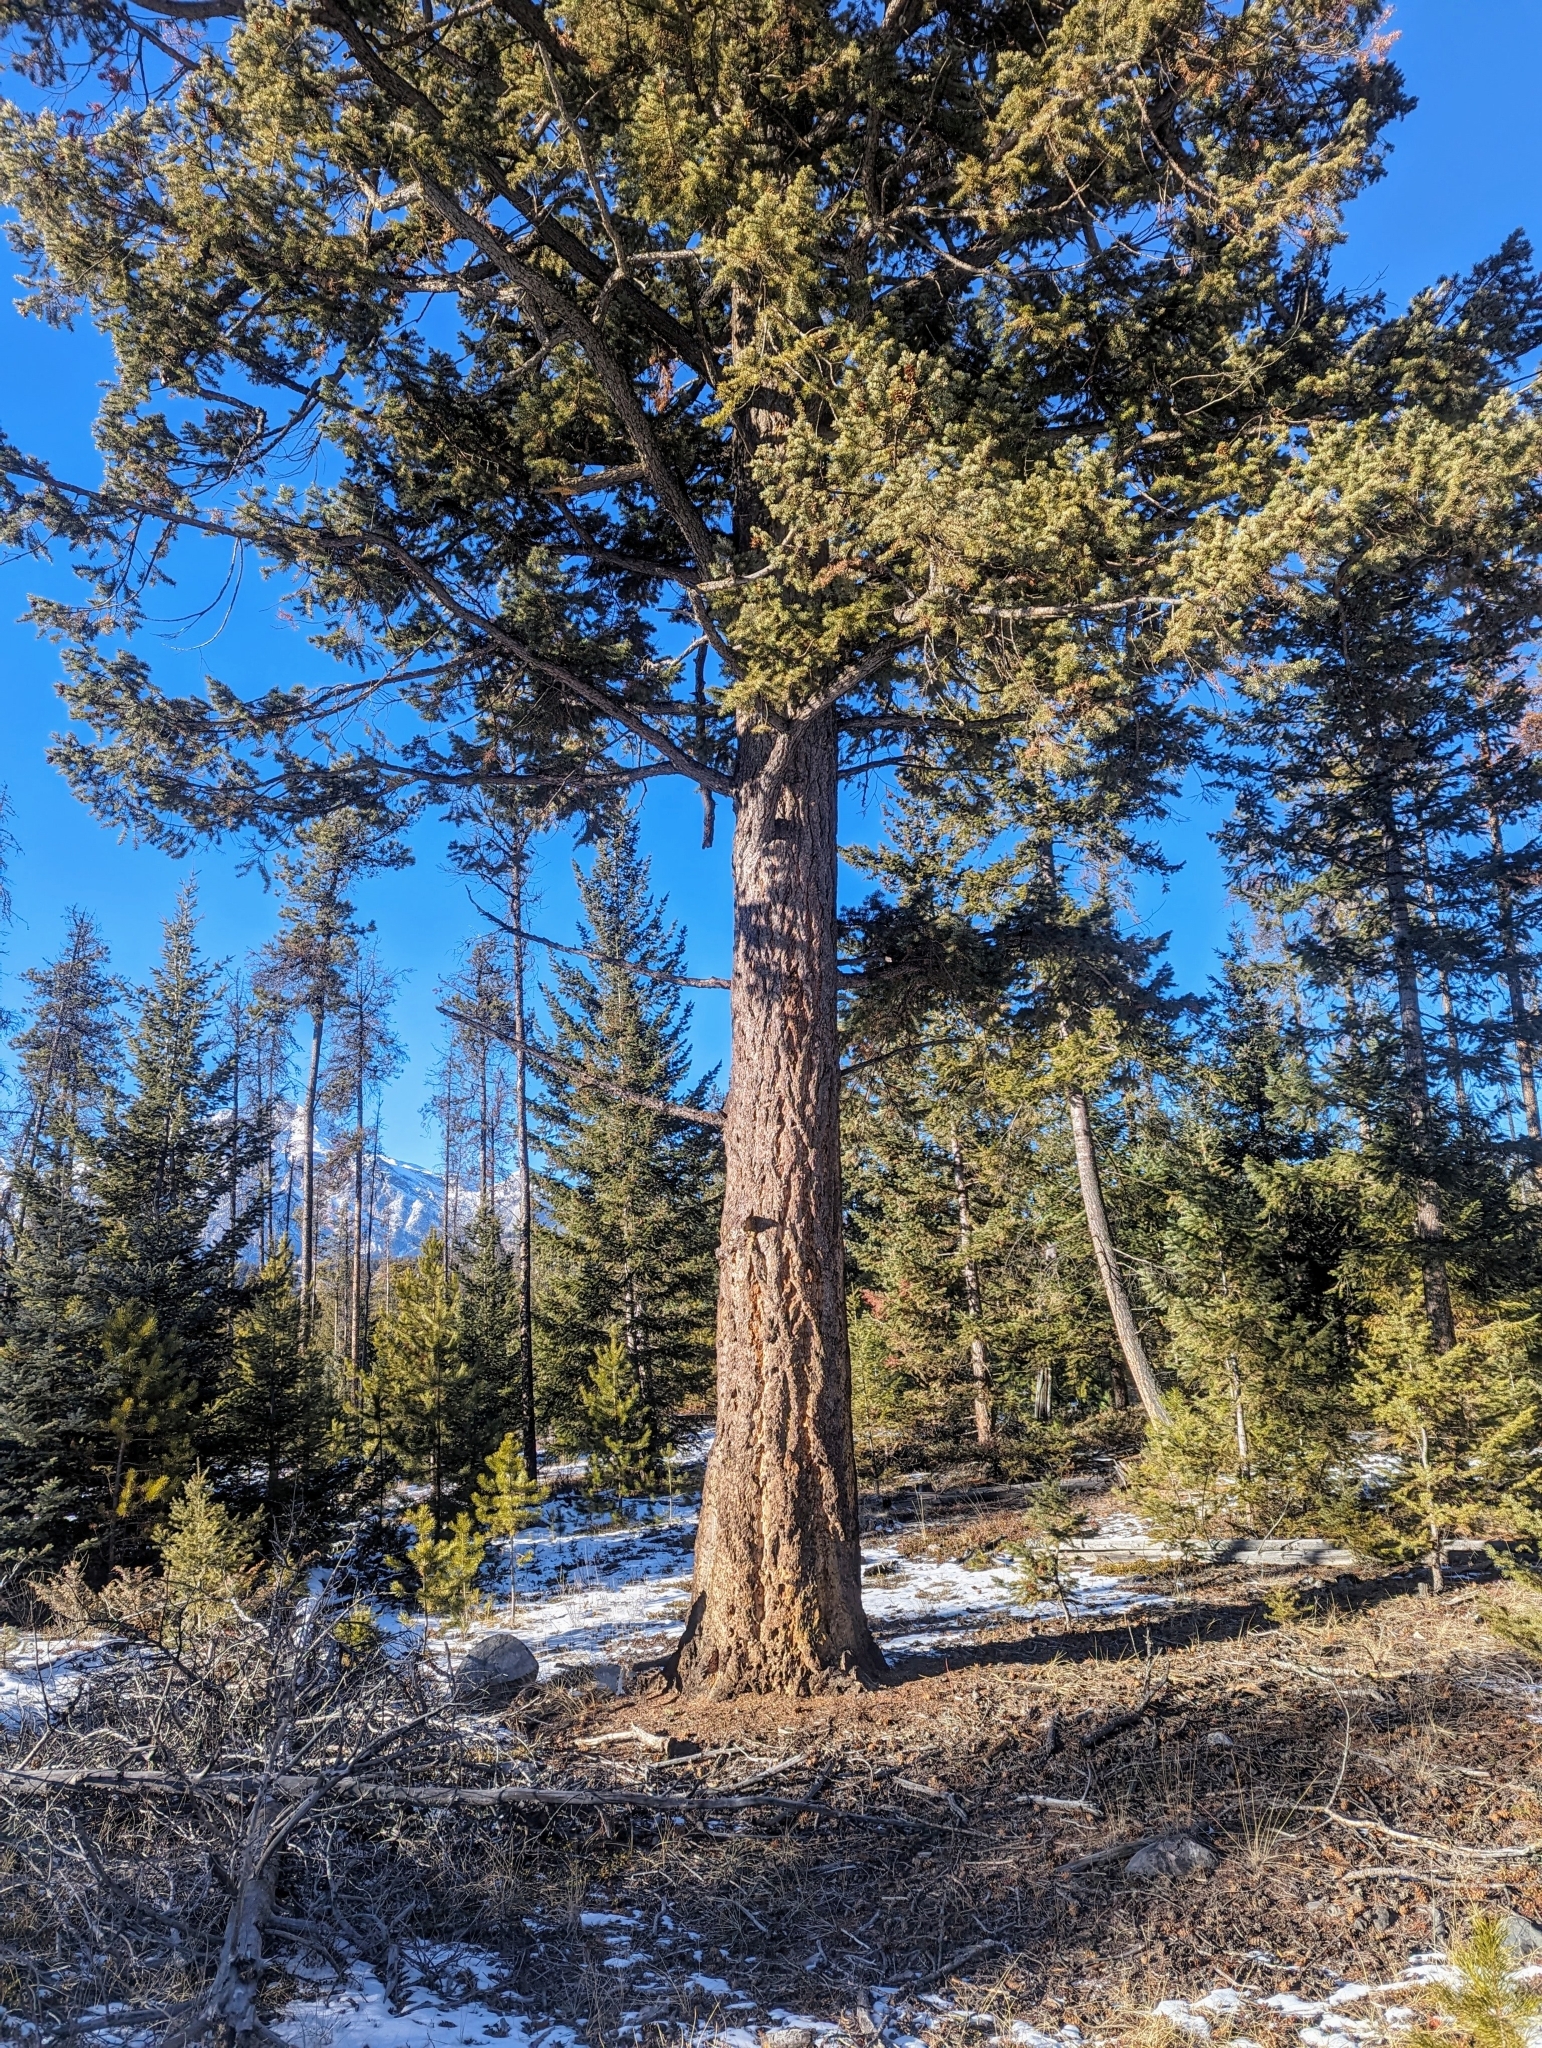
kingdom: Plantae
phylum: Tracheophyta
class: Pinopsida
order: Pinales
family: Pinaceae
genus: Pseudotsuga
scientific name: Pseudotsuga menziesii
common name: Douglas fir
